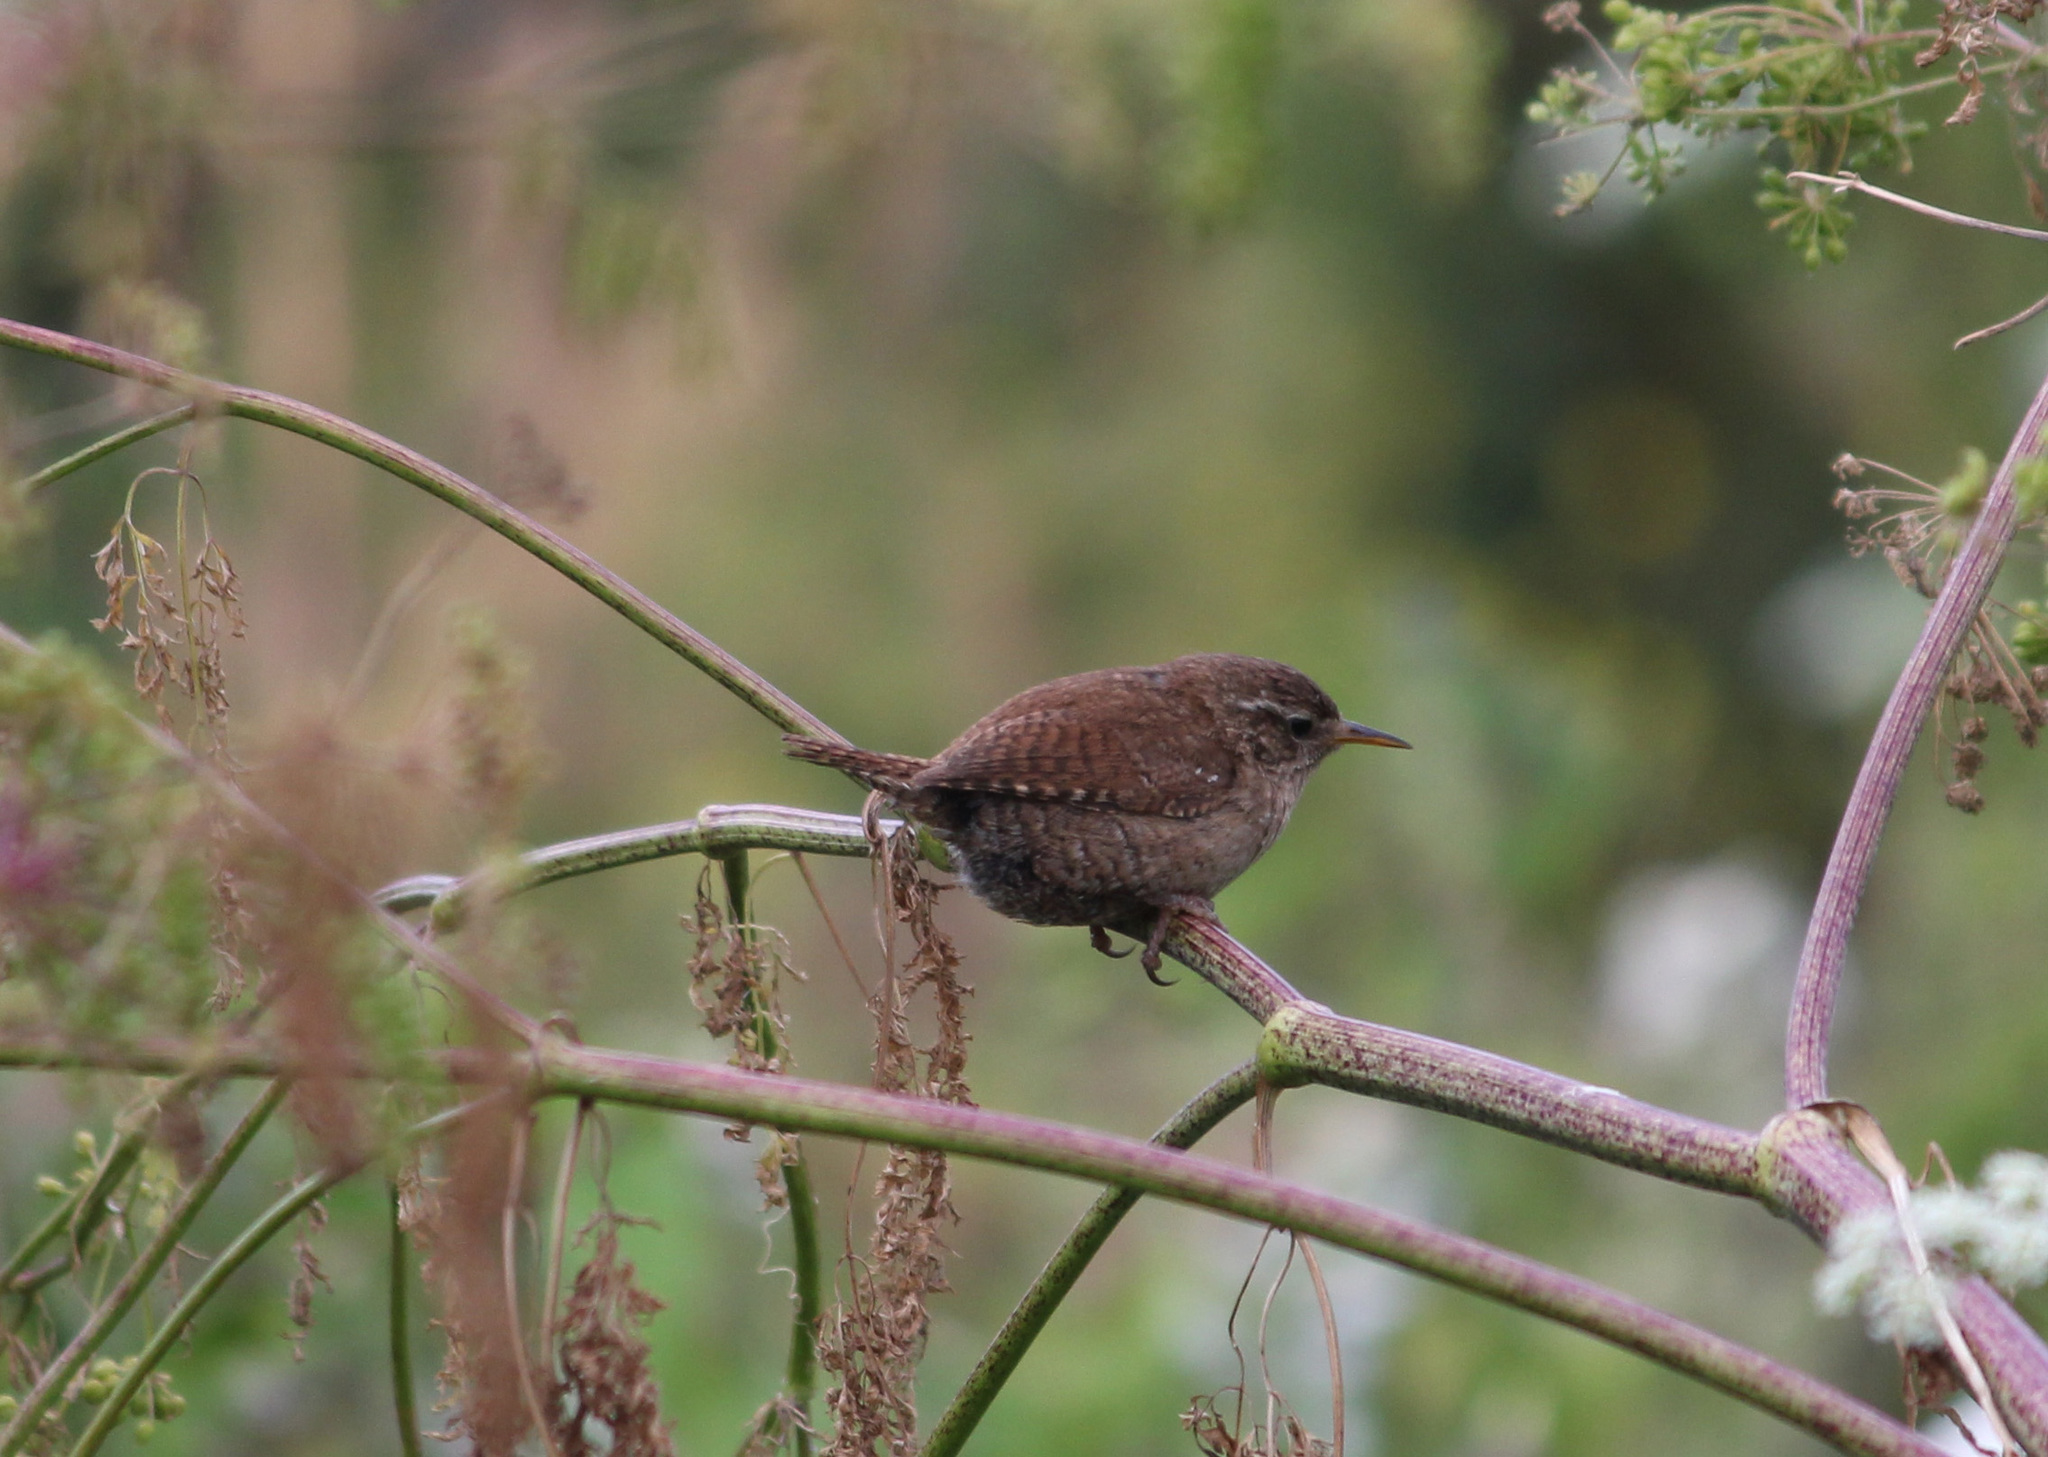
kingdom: Animalia
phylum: Chordata
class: Aves
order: Passeriformes
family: Troglodytidae
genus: Troglodytes
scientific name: Troglodytes troglodytes
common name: Eurasian wren
